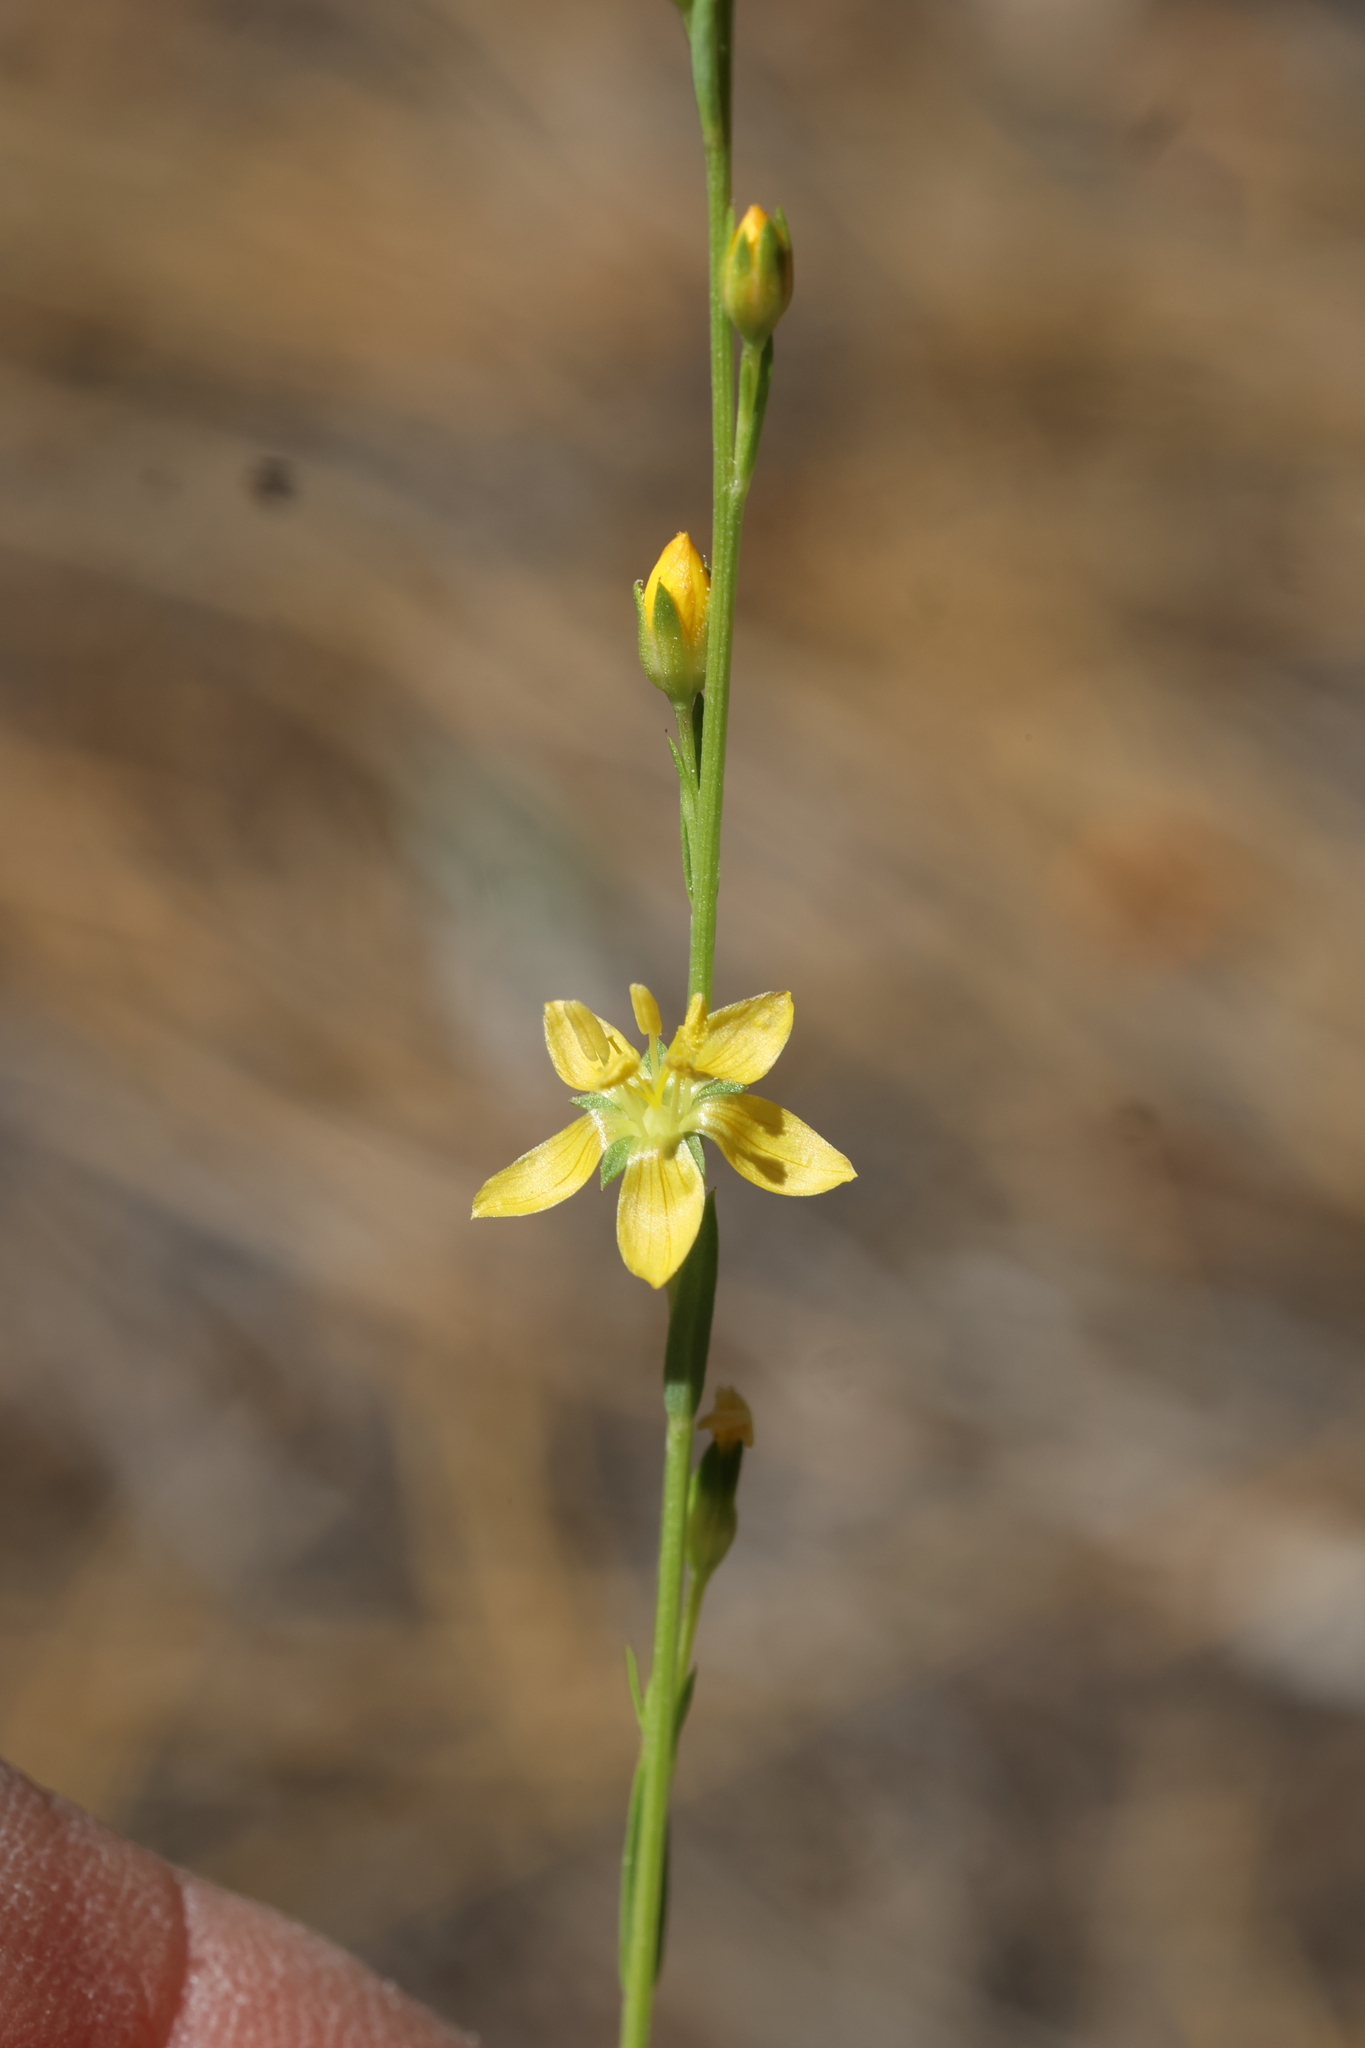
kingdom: Plantae
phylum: Tracheophyta
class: Magnoliopsida
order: Malpighiales
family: Linaceae
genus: Linum
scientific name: Linum neomexicanum
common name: New mexico yellow flax
